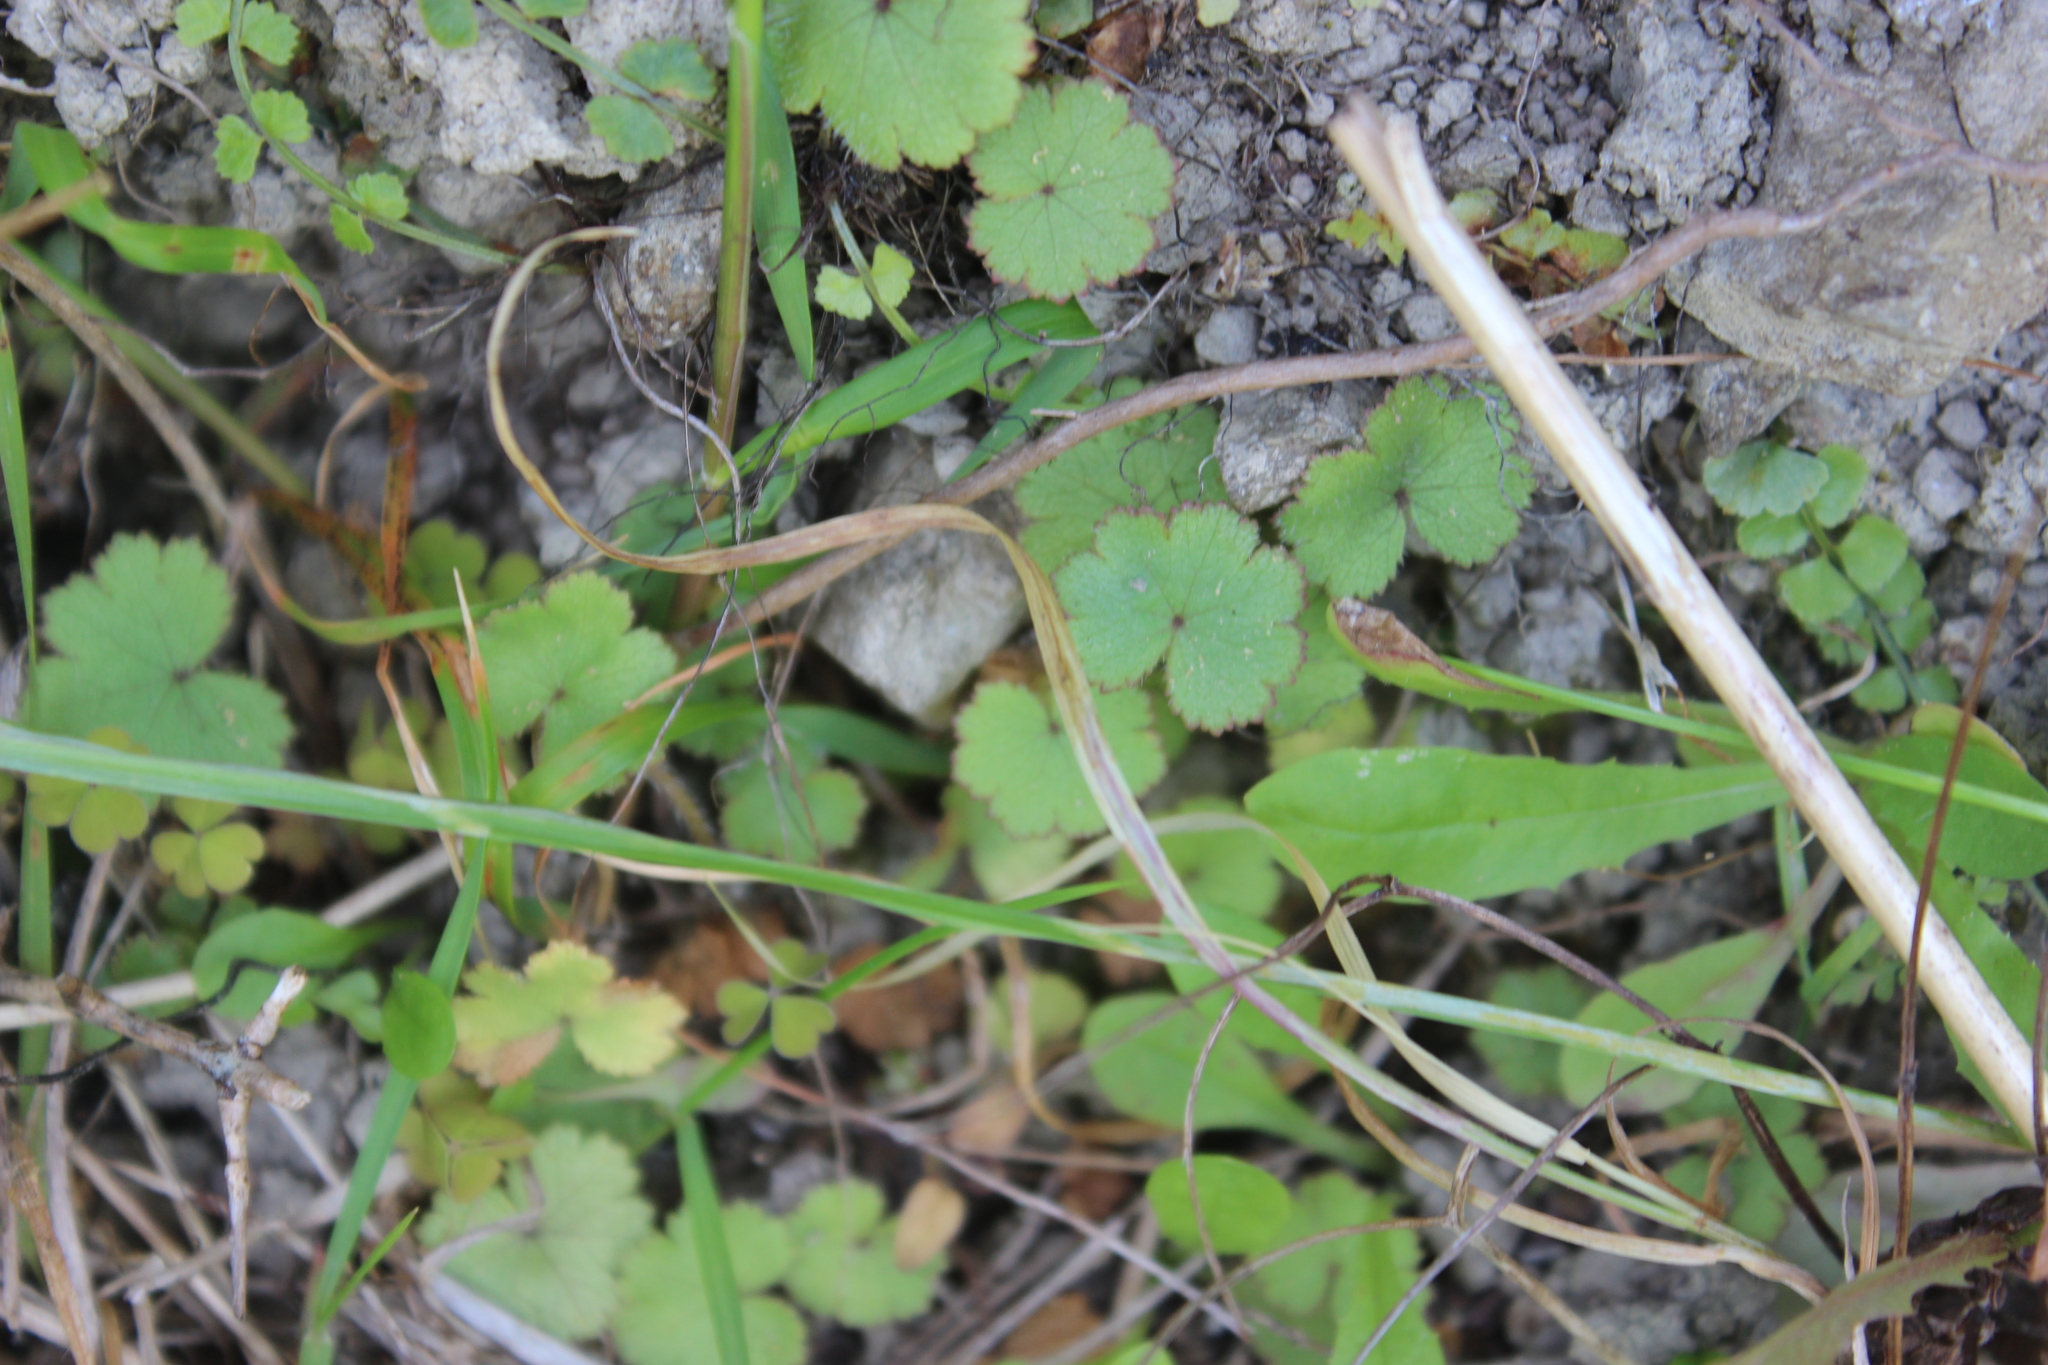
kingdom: Plantae
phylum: Tracheophyta
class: Magnoliopsida
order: Apiales
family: Araliaceae
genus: Hydrocotyle
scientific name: Hydrocotyle moschata
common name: Hairy pennywort
